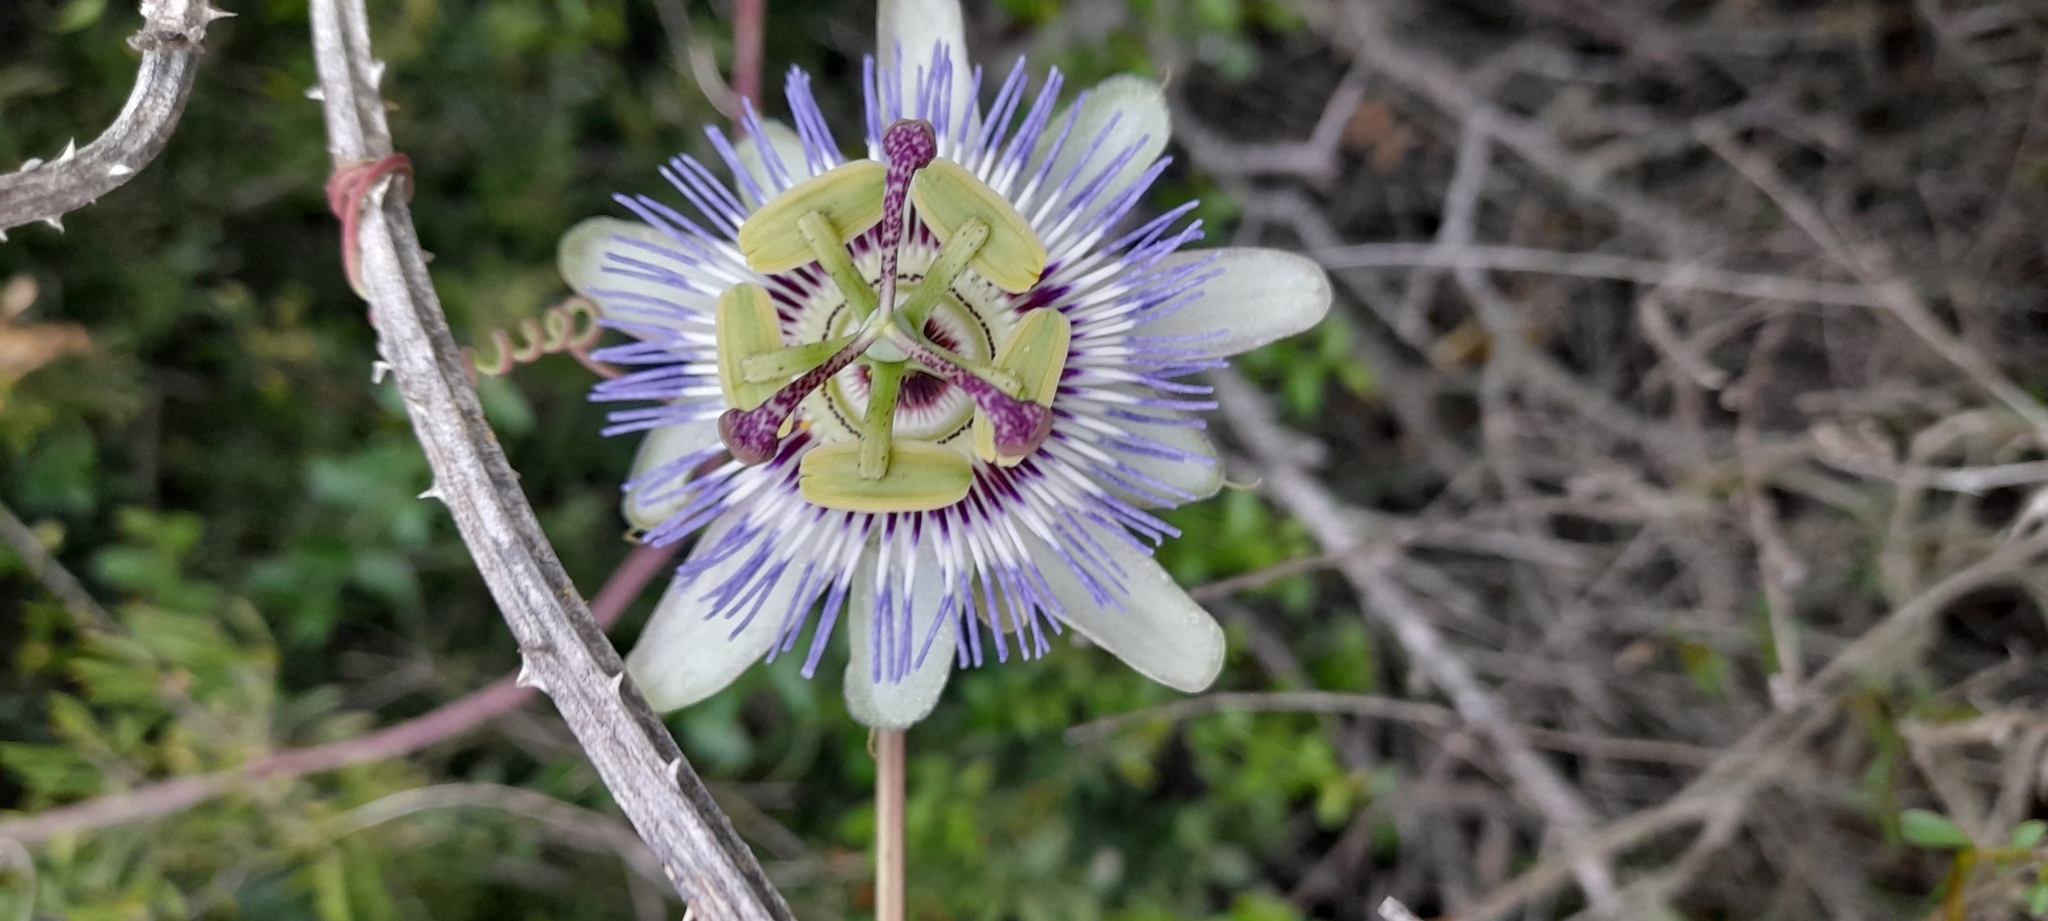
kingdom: Plantae
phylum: Tracheophyta
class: Magnoliopsida
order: Malpighiales
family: Passifloraceae
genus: Passiflora
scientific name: Passiflora caerulea
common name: Blue passionflower
